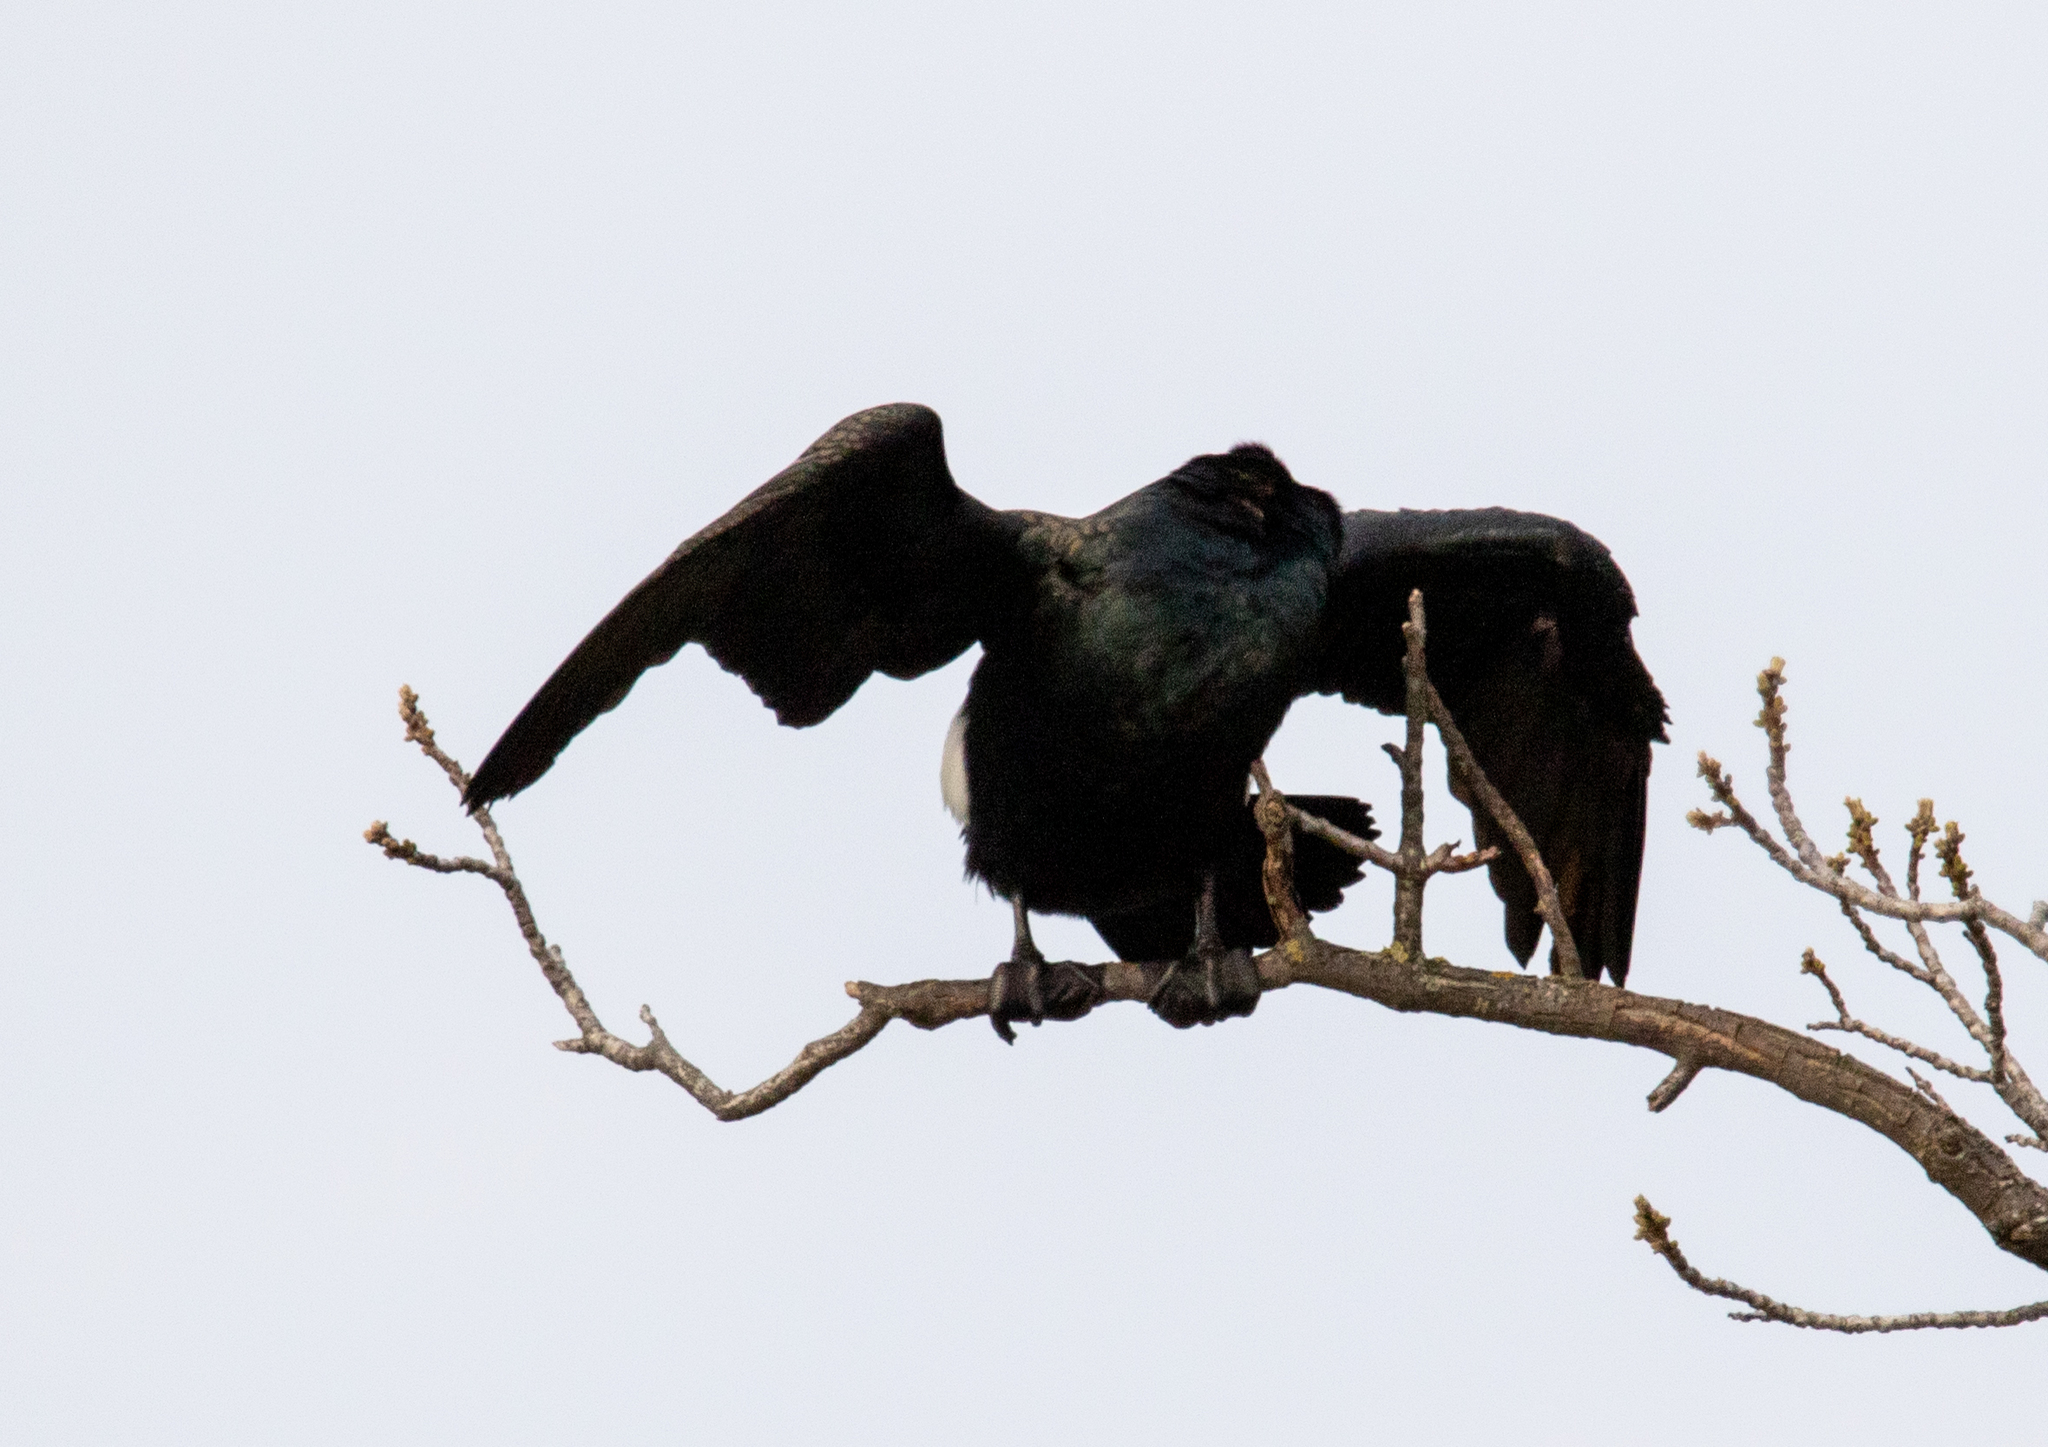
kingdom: Animalia
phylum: Chordata
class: Aves
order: Suliformes
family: Phalacrocoracidae
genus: Phalacrocorax
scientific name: Phalacrocorax carbo
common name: Great cormorant
